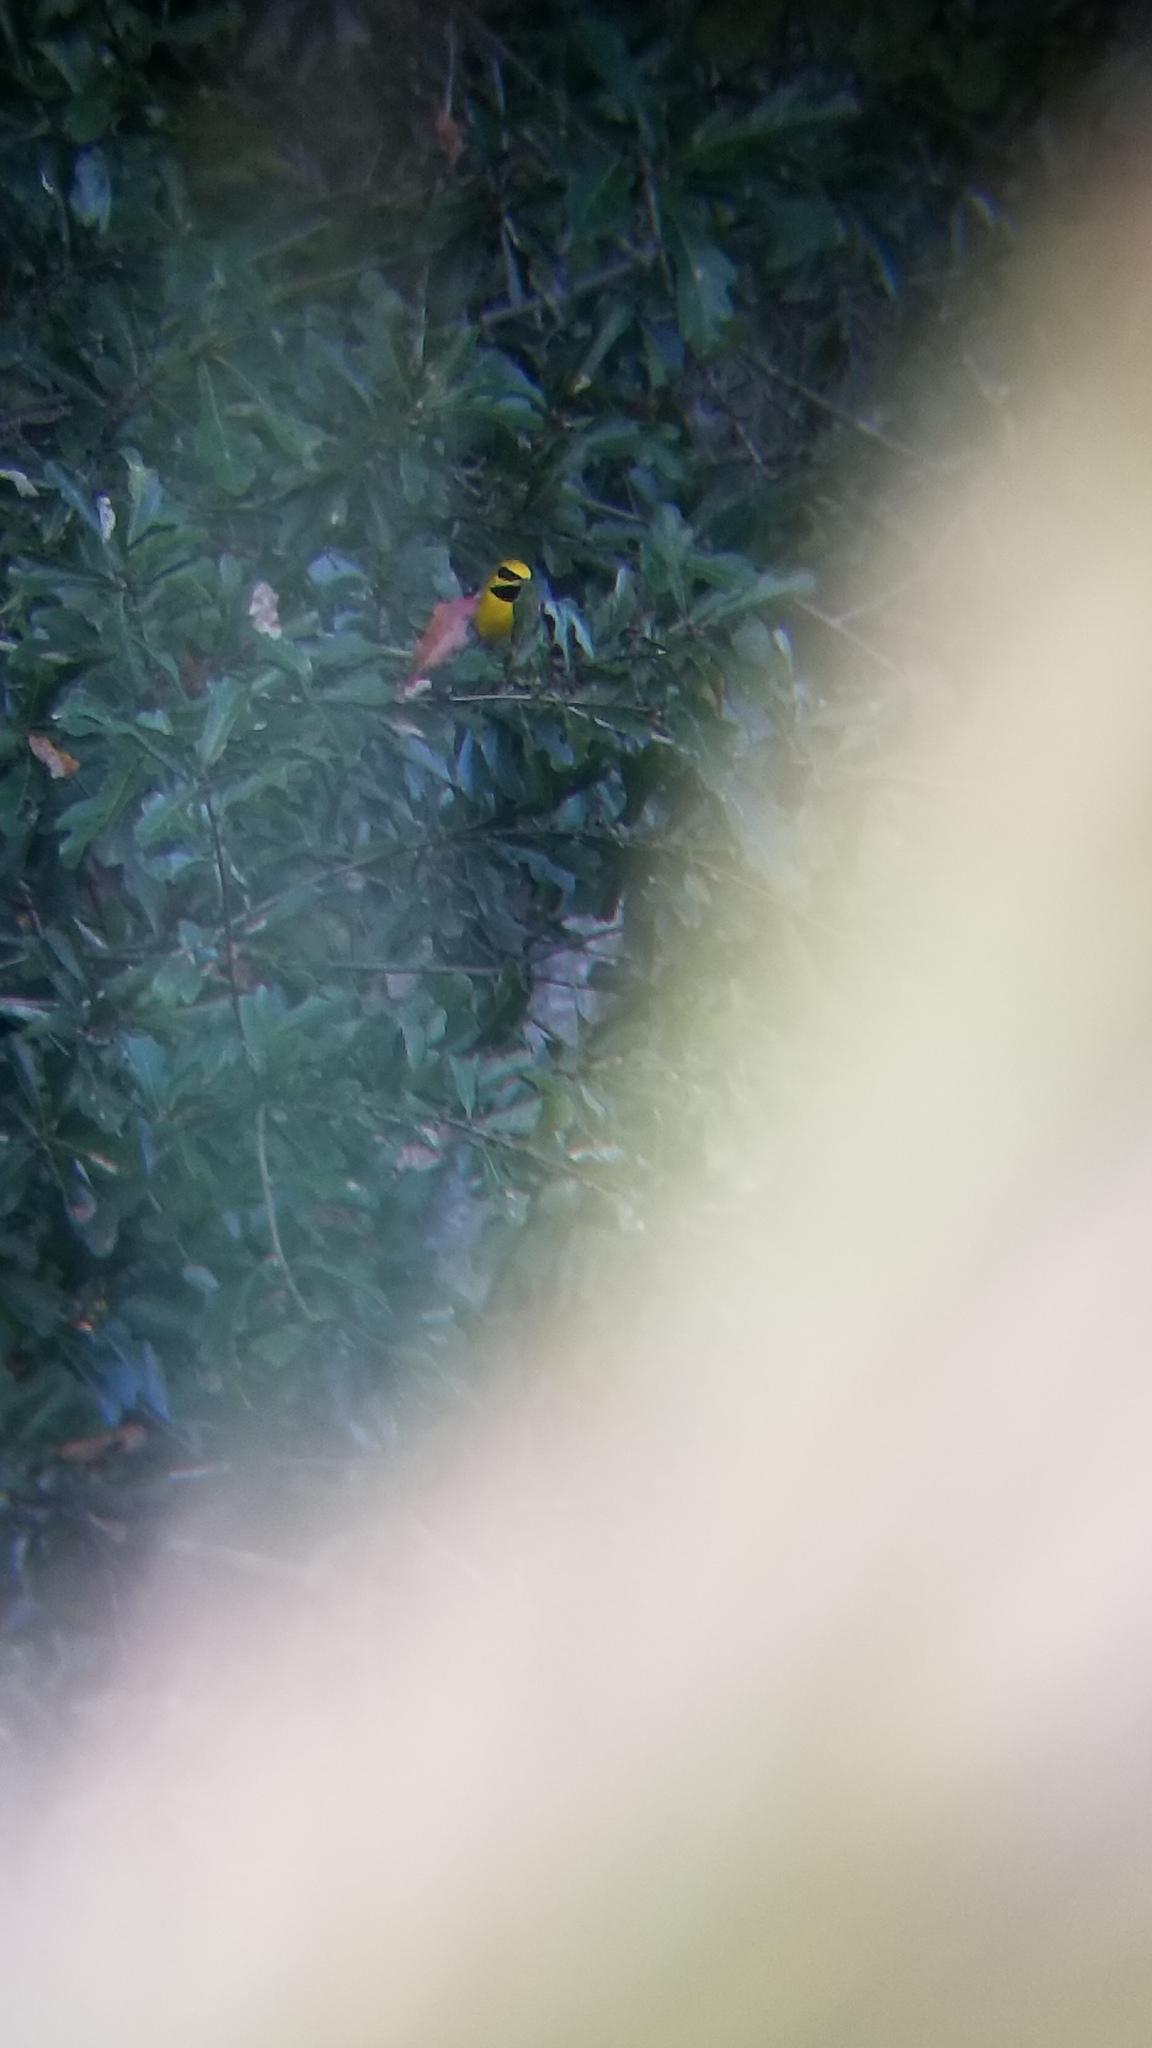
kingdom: Animalia
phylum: Chordata
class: Aves
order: Passeriformes
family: Parulidae
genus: Vermivora
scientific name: Vermivora
